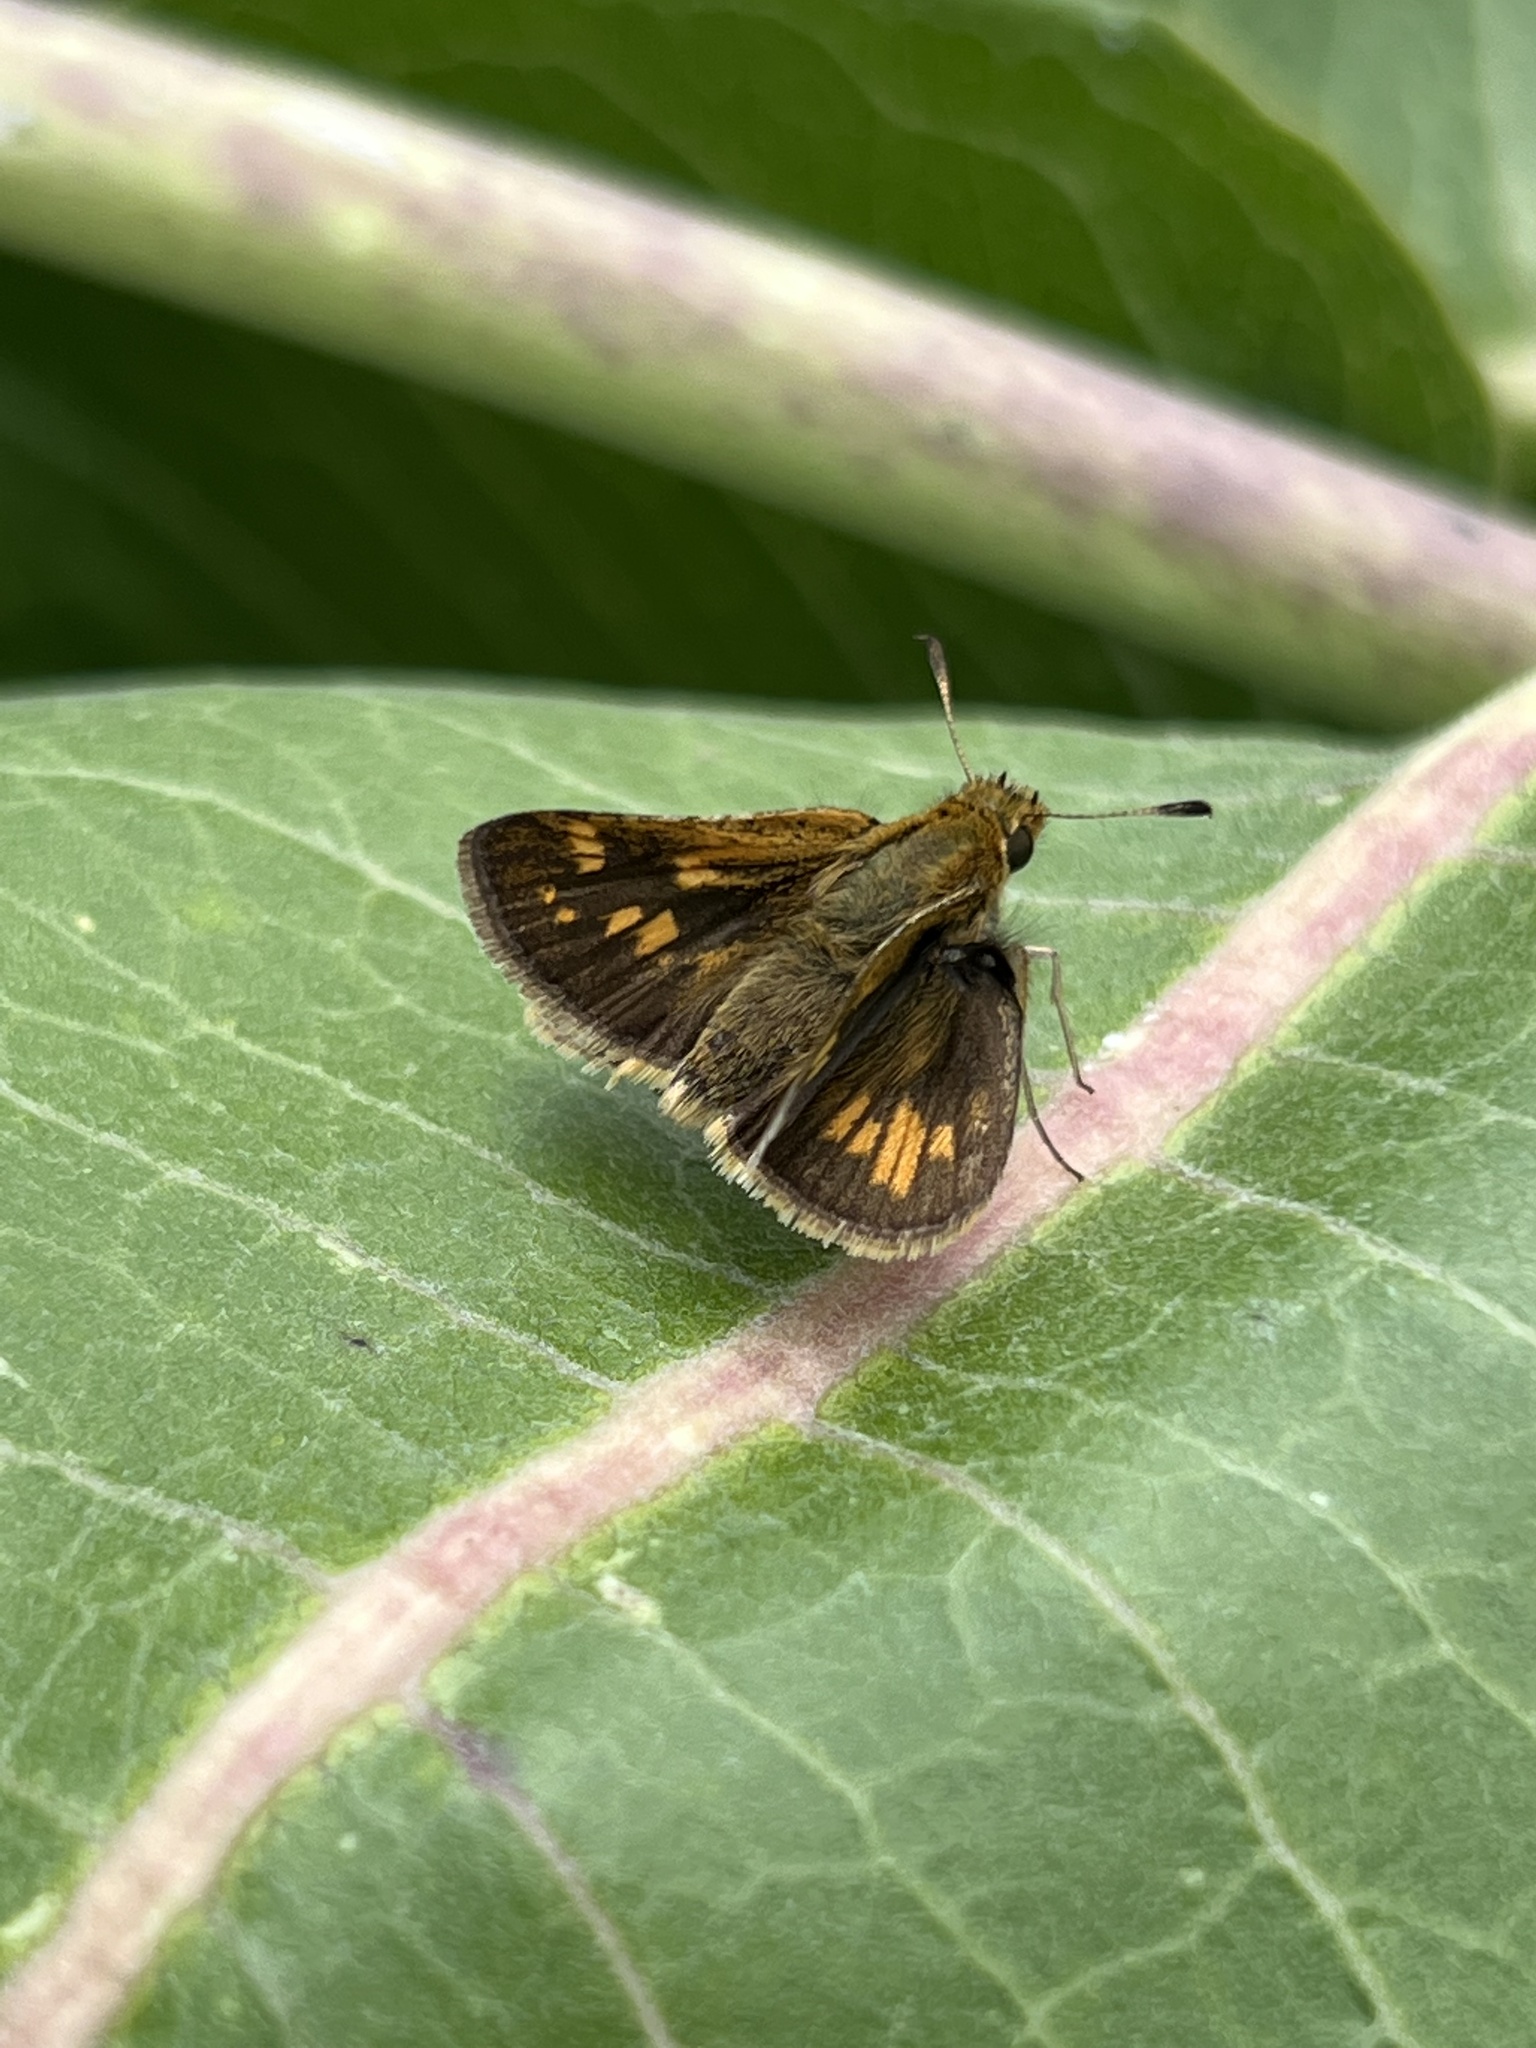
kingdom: Animalia
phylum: Arthropoda
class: Insecta
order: Lepidoptera
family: Hesperiidae
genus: Polites
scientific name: Polites coras
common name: Peck's skipper
